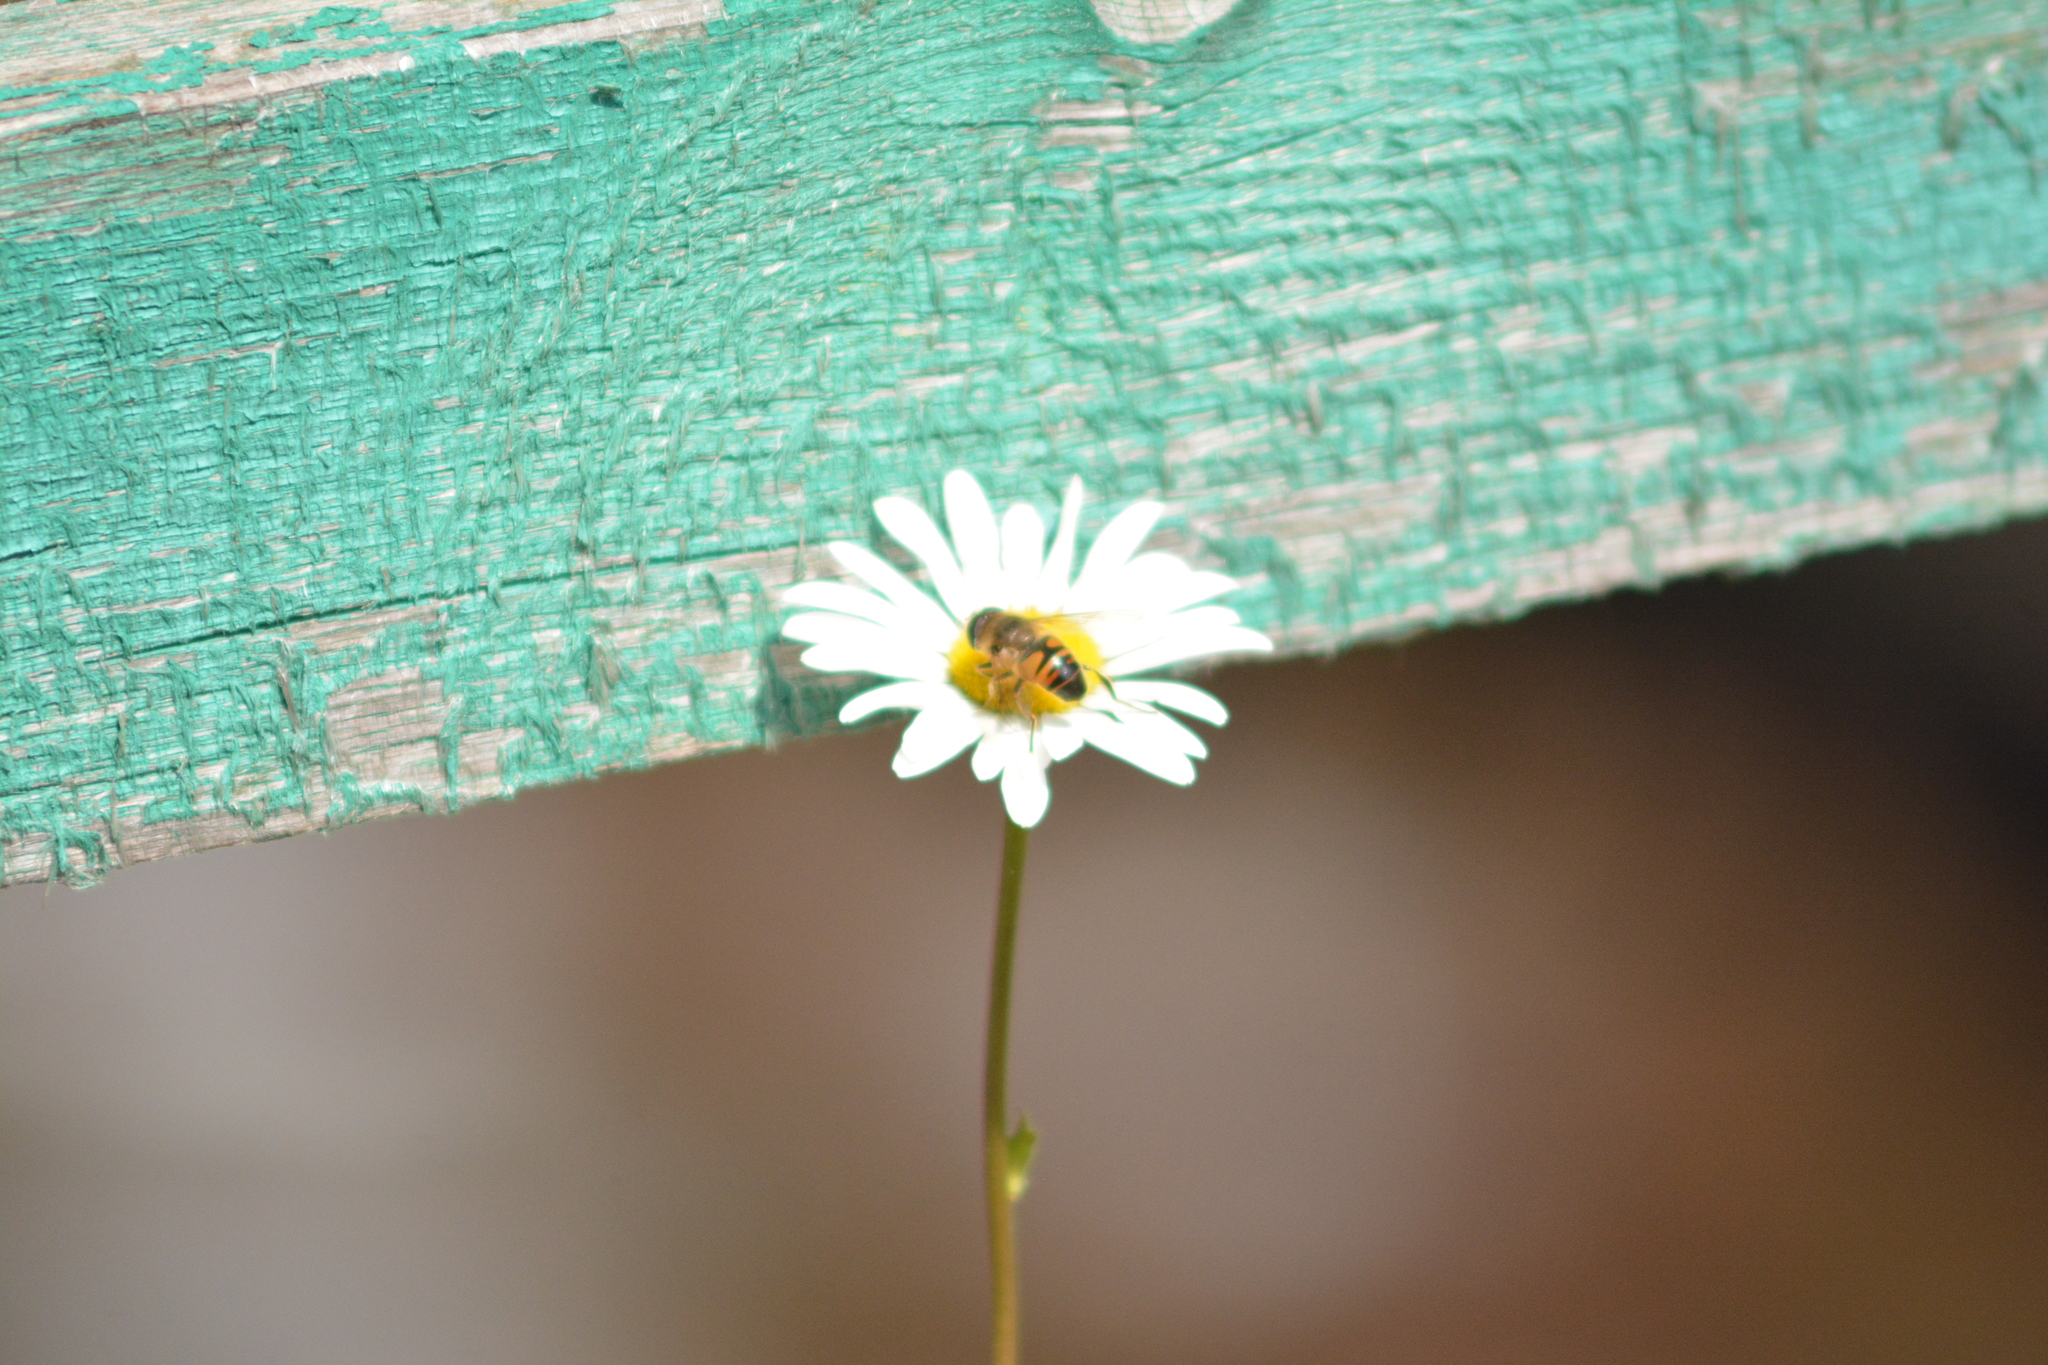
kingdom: Animalia
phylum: Arthropoda
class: Insecta
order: Diptera
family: Syrphidae
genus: Eristalis
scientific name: Eristalis tenax
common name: Drone fly
